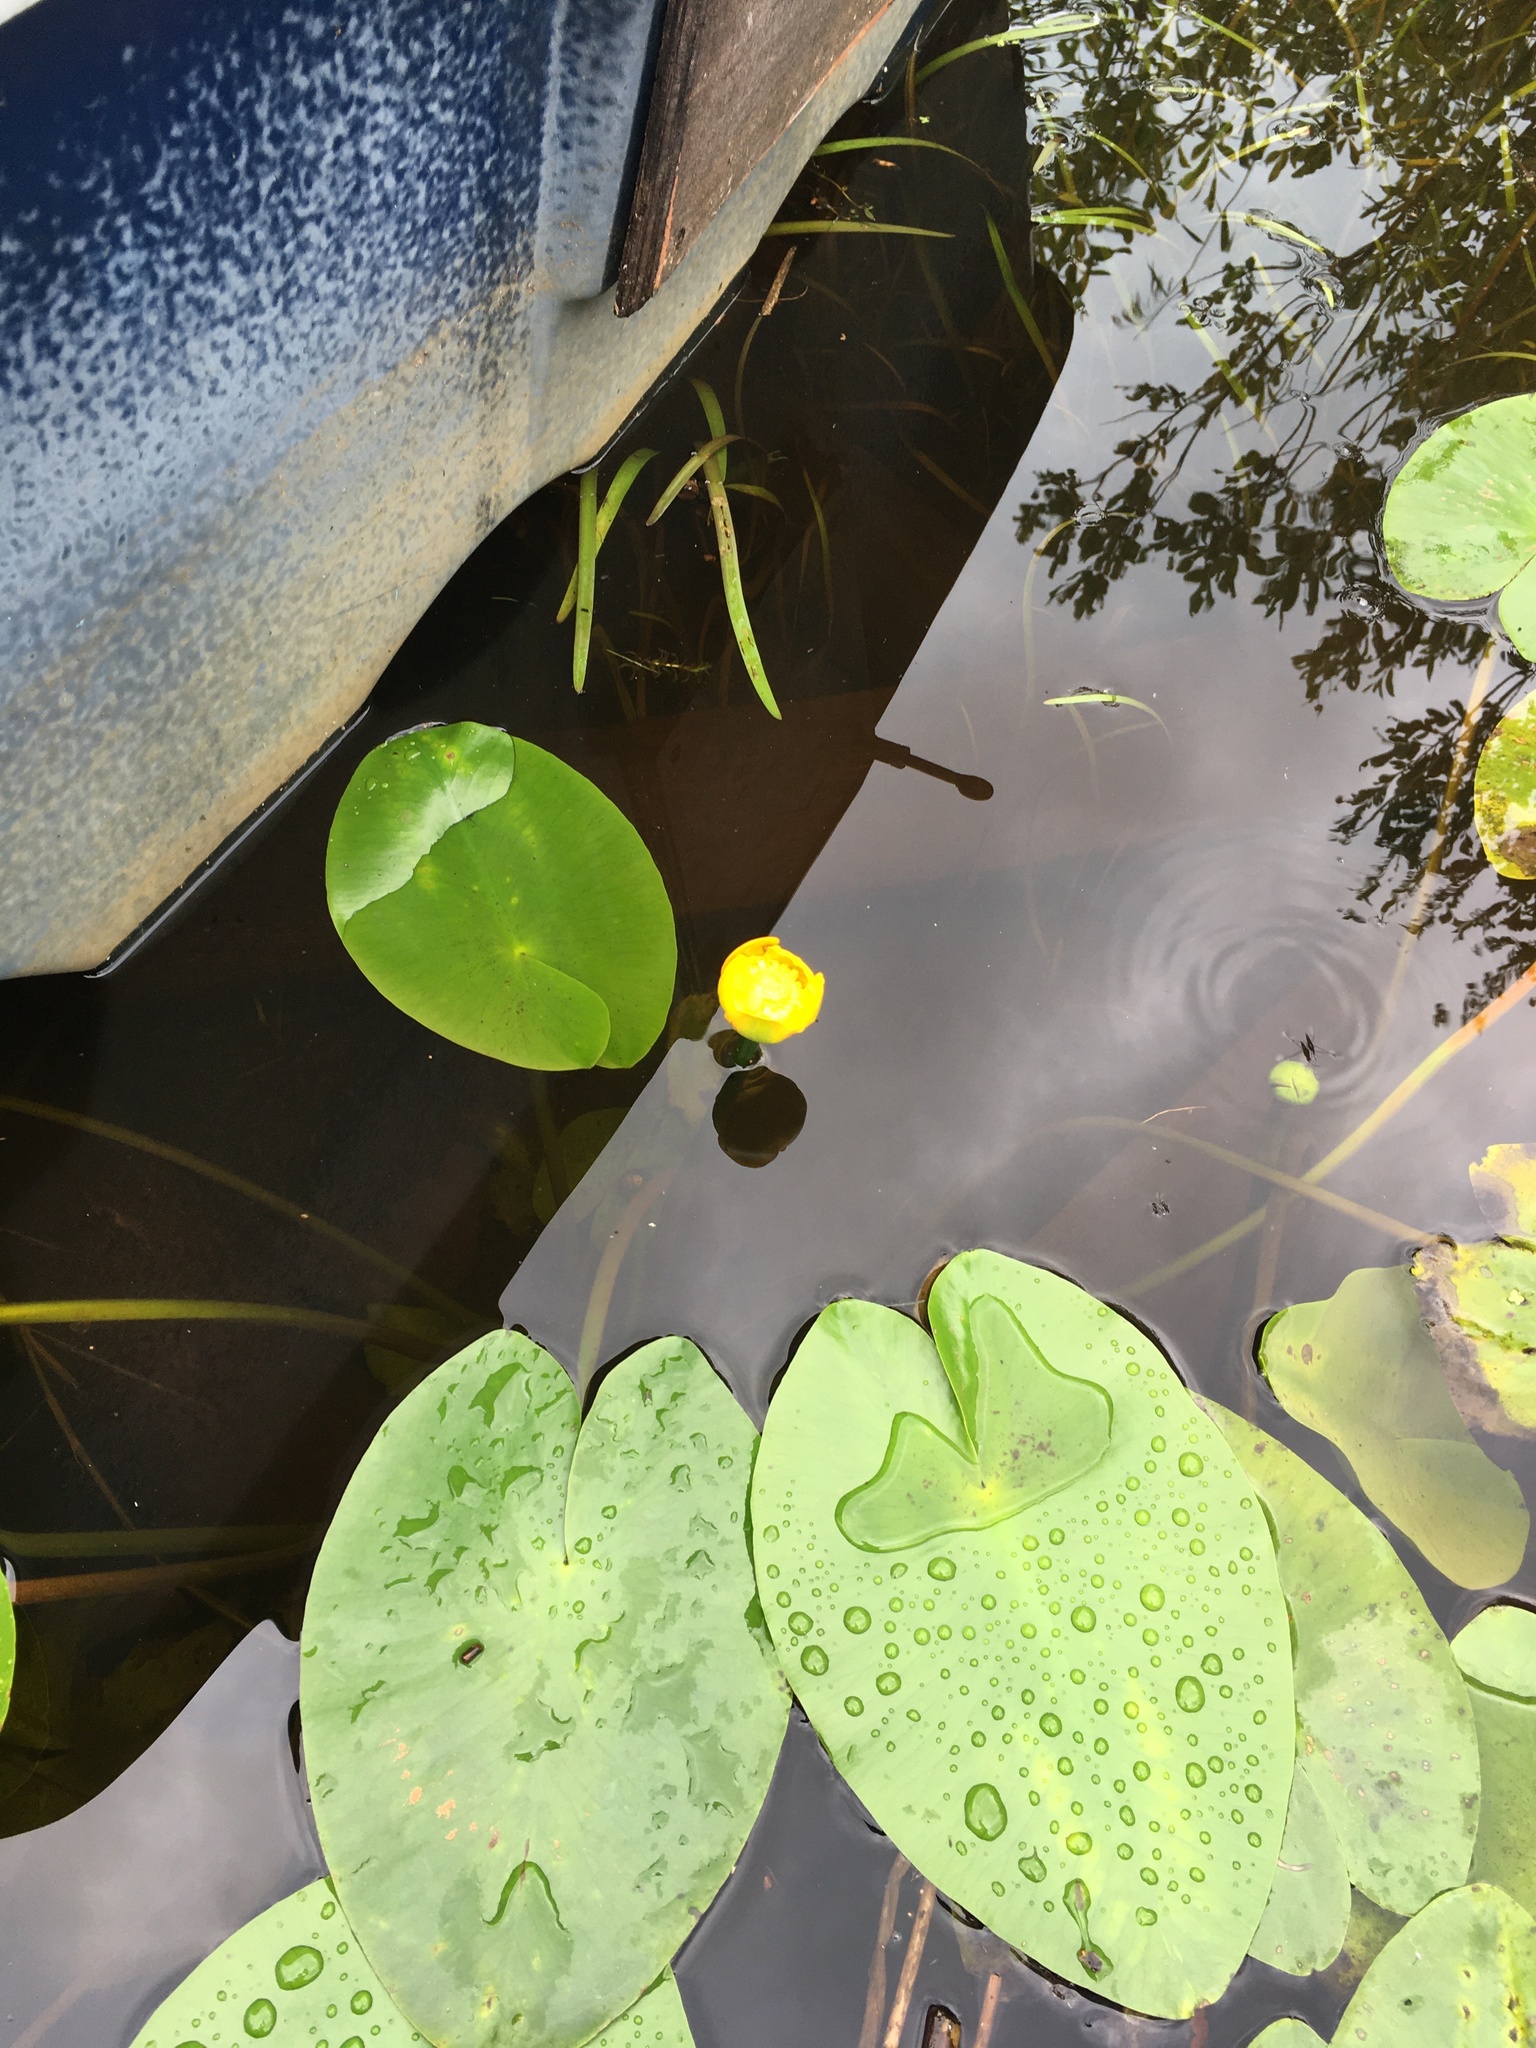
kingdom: Plantae
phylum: Tracheophyta
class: Magnoliopsida
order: Nymphaeales
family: Nymphaeaceae
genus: Nuphar
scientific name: Nuphar lutea
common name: Yellow water-lily
